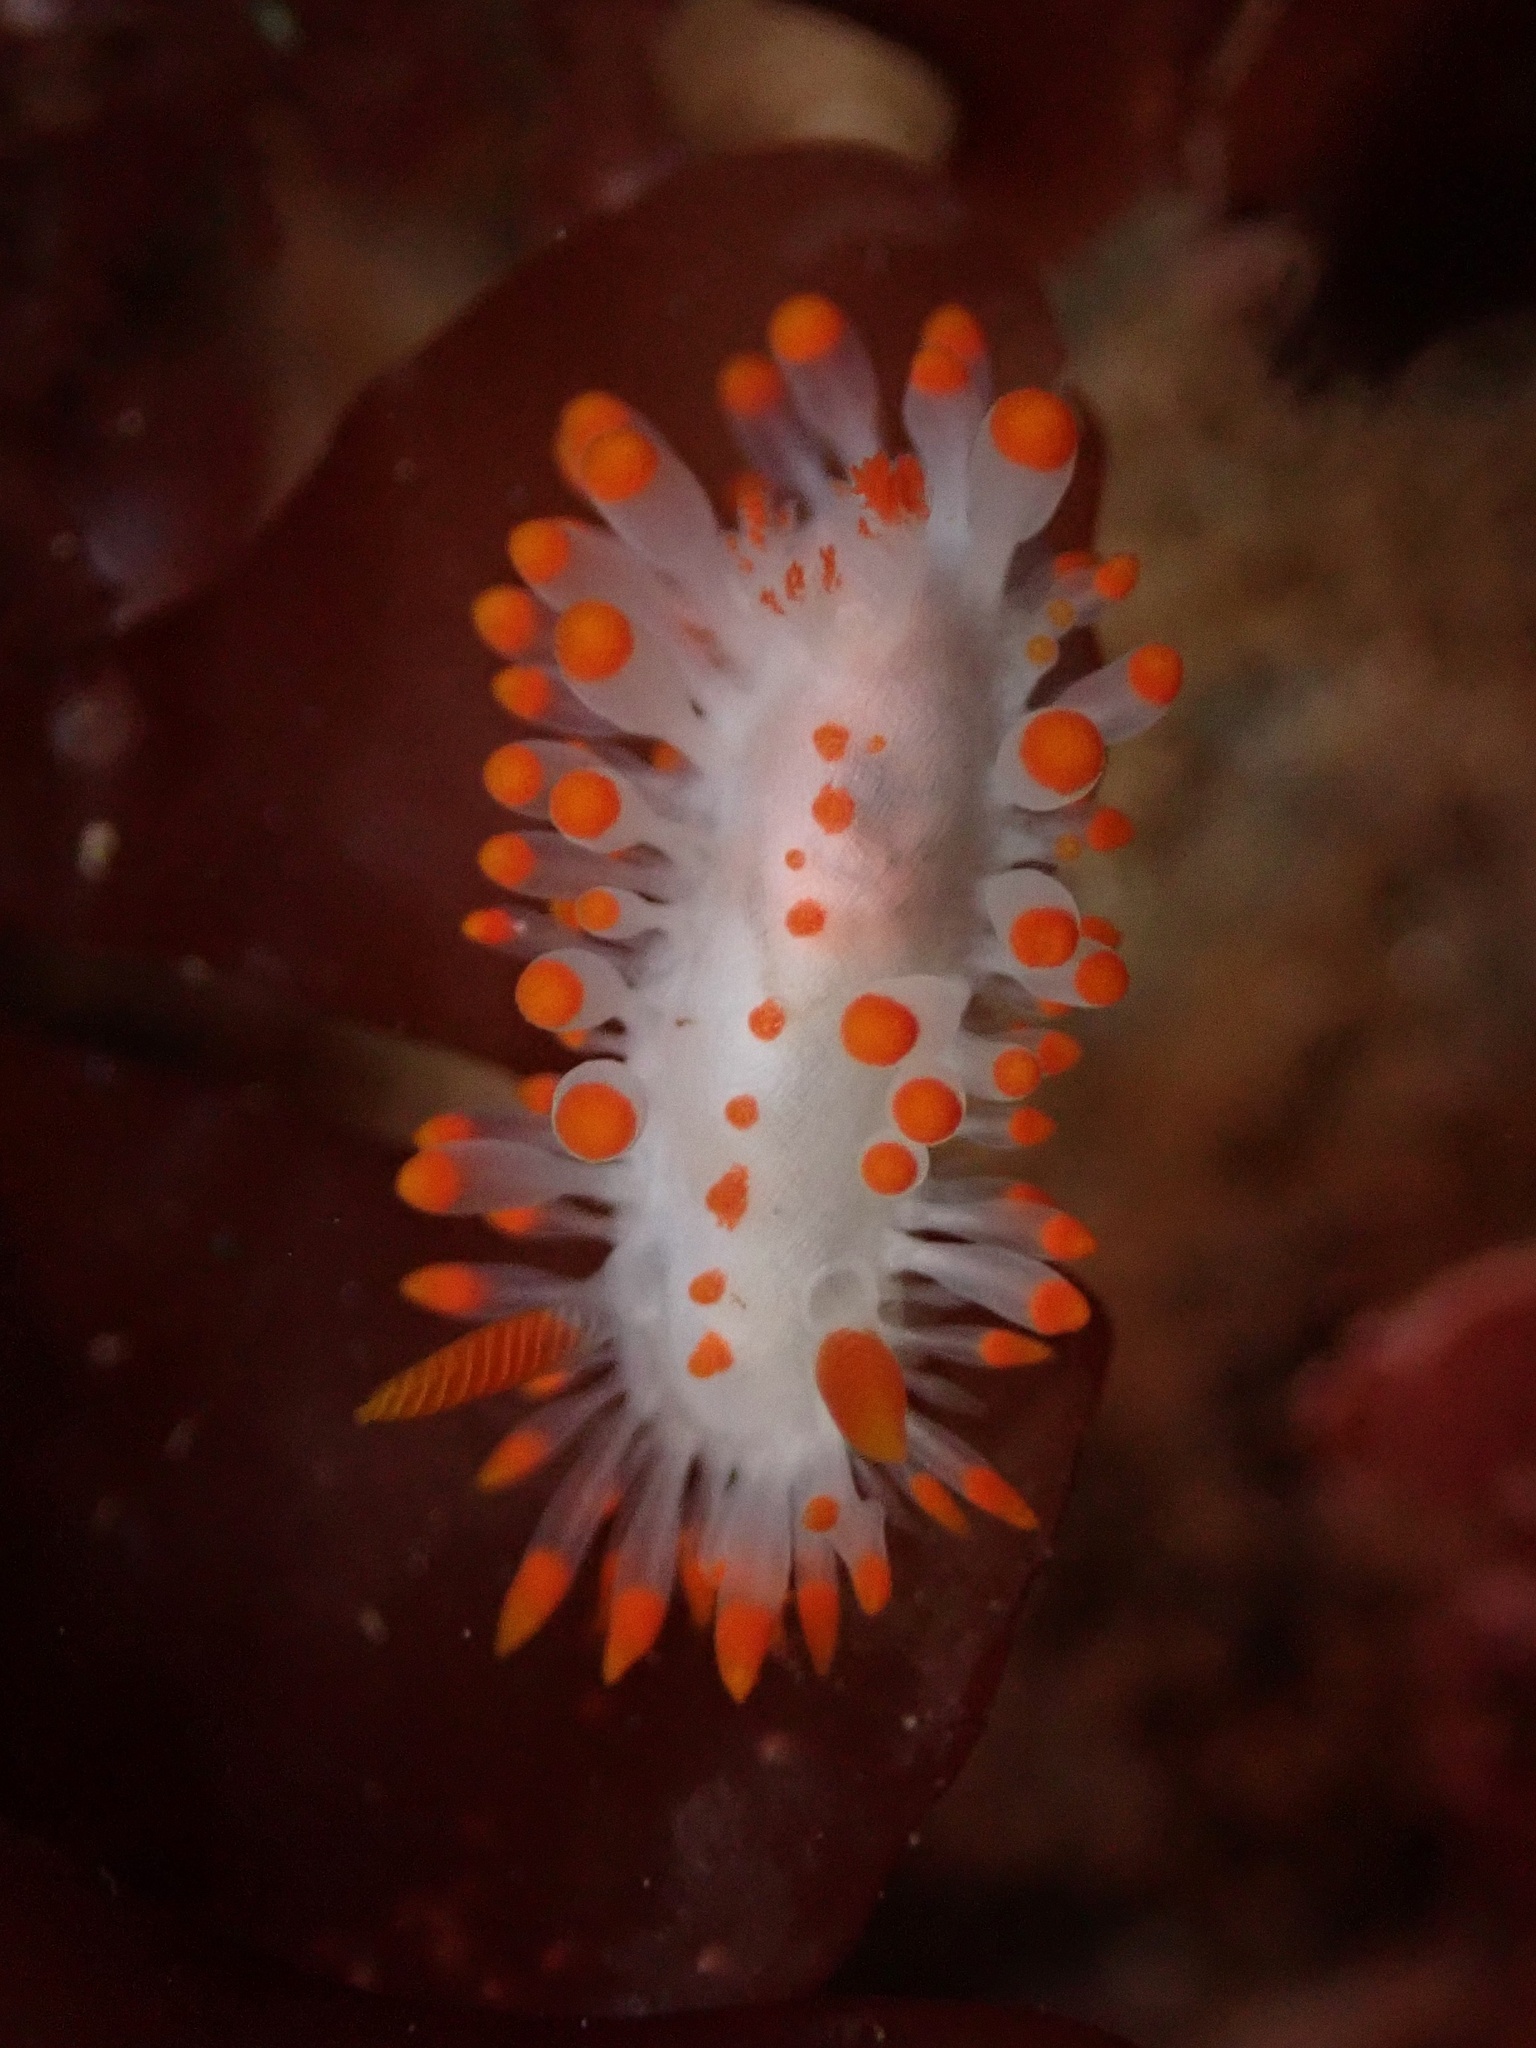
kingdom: Animalia
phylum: Mollusca
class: Gastropoda
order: Nudibranchia
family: Polyceridae
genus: Limacia
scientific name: Limacia mcdonaldi
